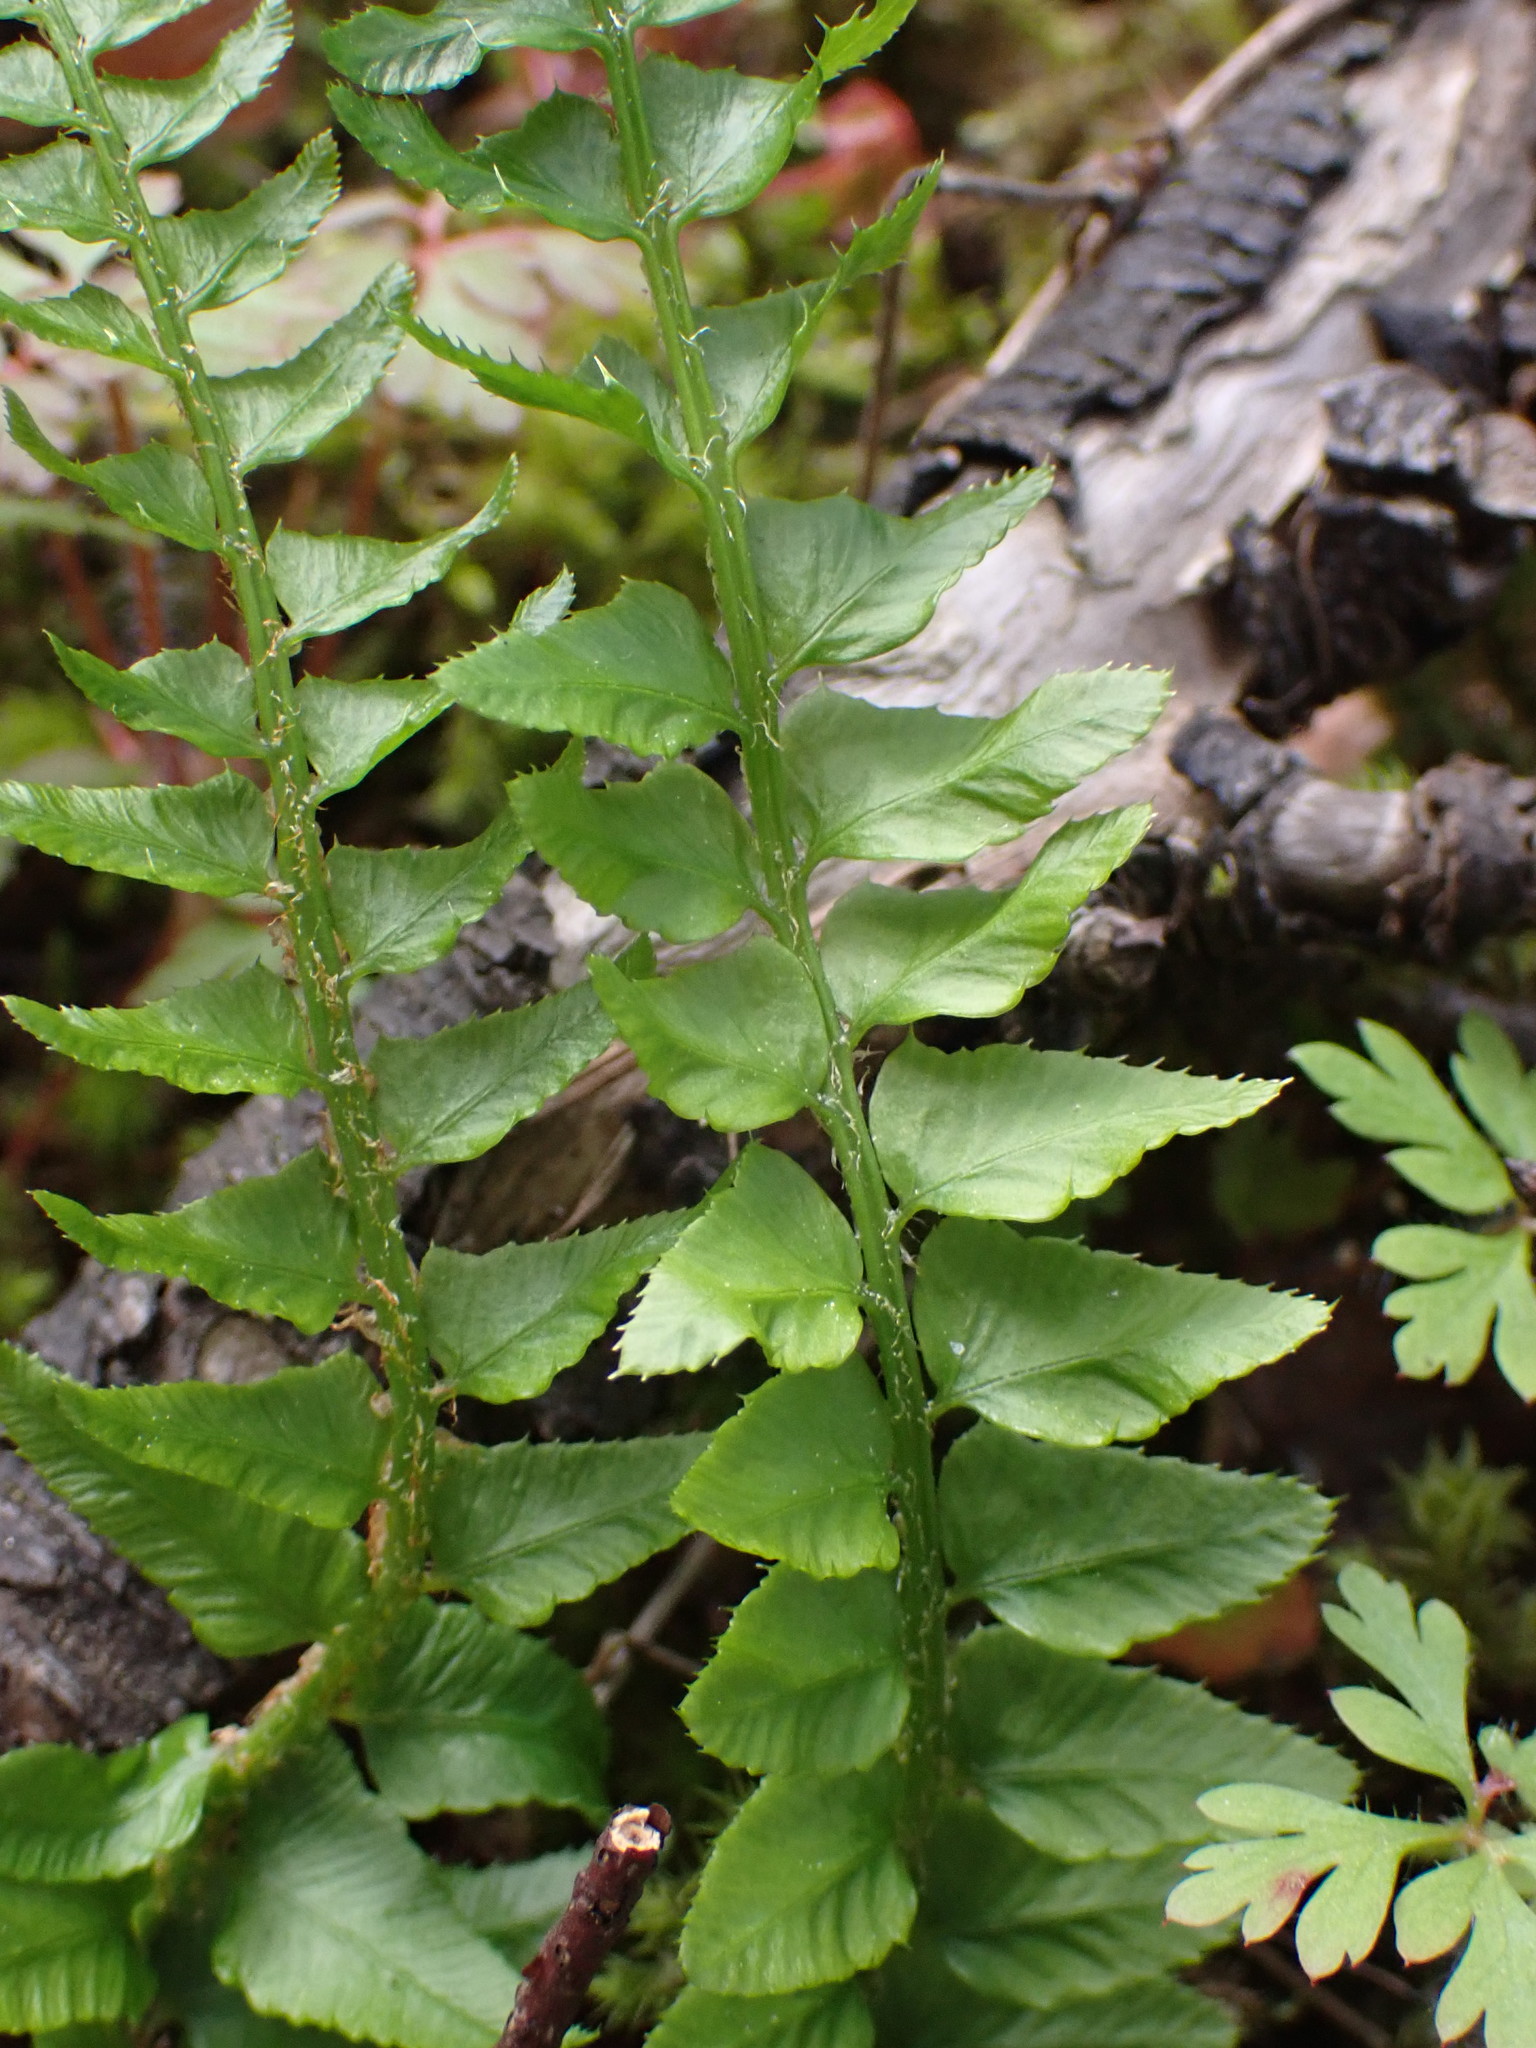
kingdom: Plantae
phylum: Tracheophyta
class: Polypodiopsida
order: Polypodiales
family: Dryopteridaceae
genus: Polystichum
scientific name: Polystichum munitum
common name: Western sword-fern
